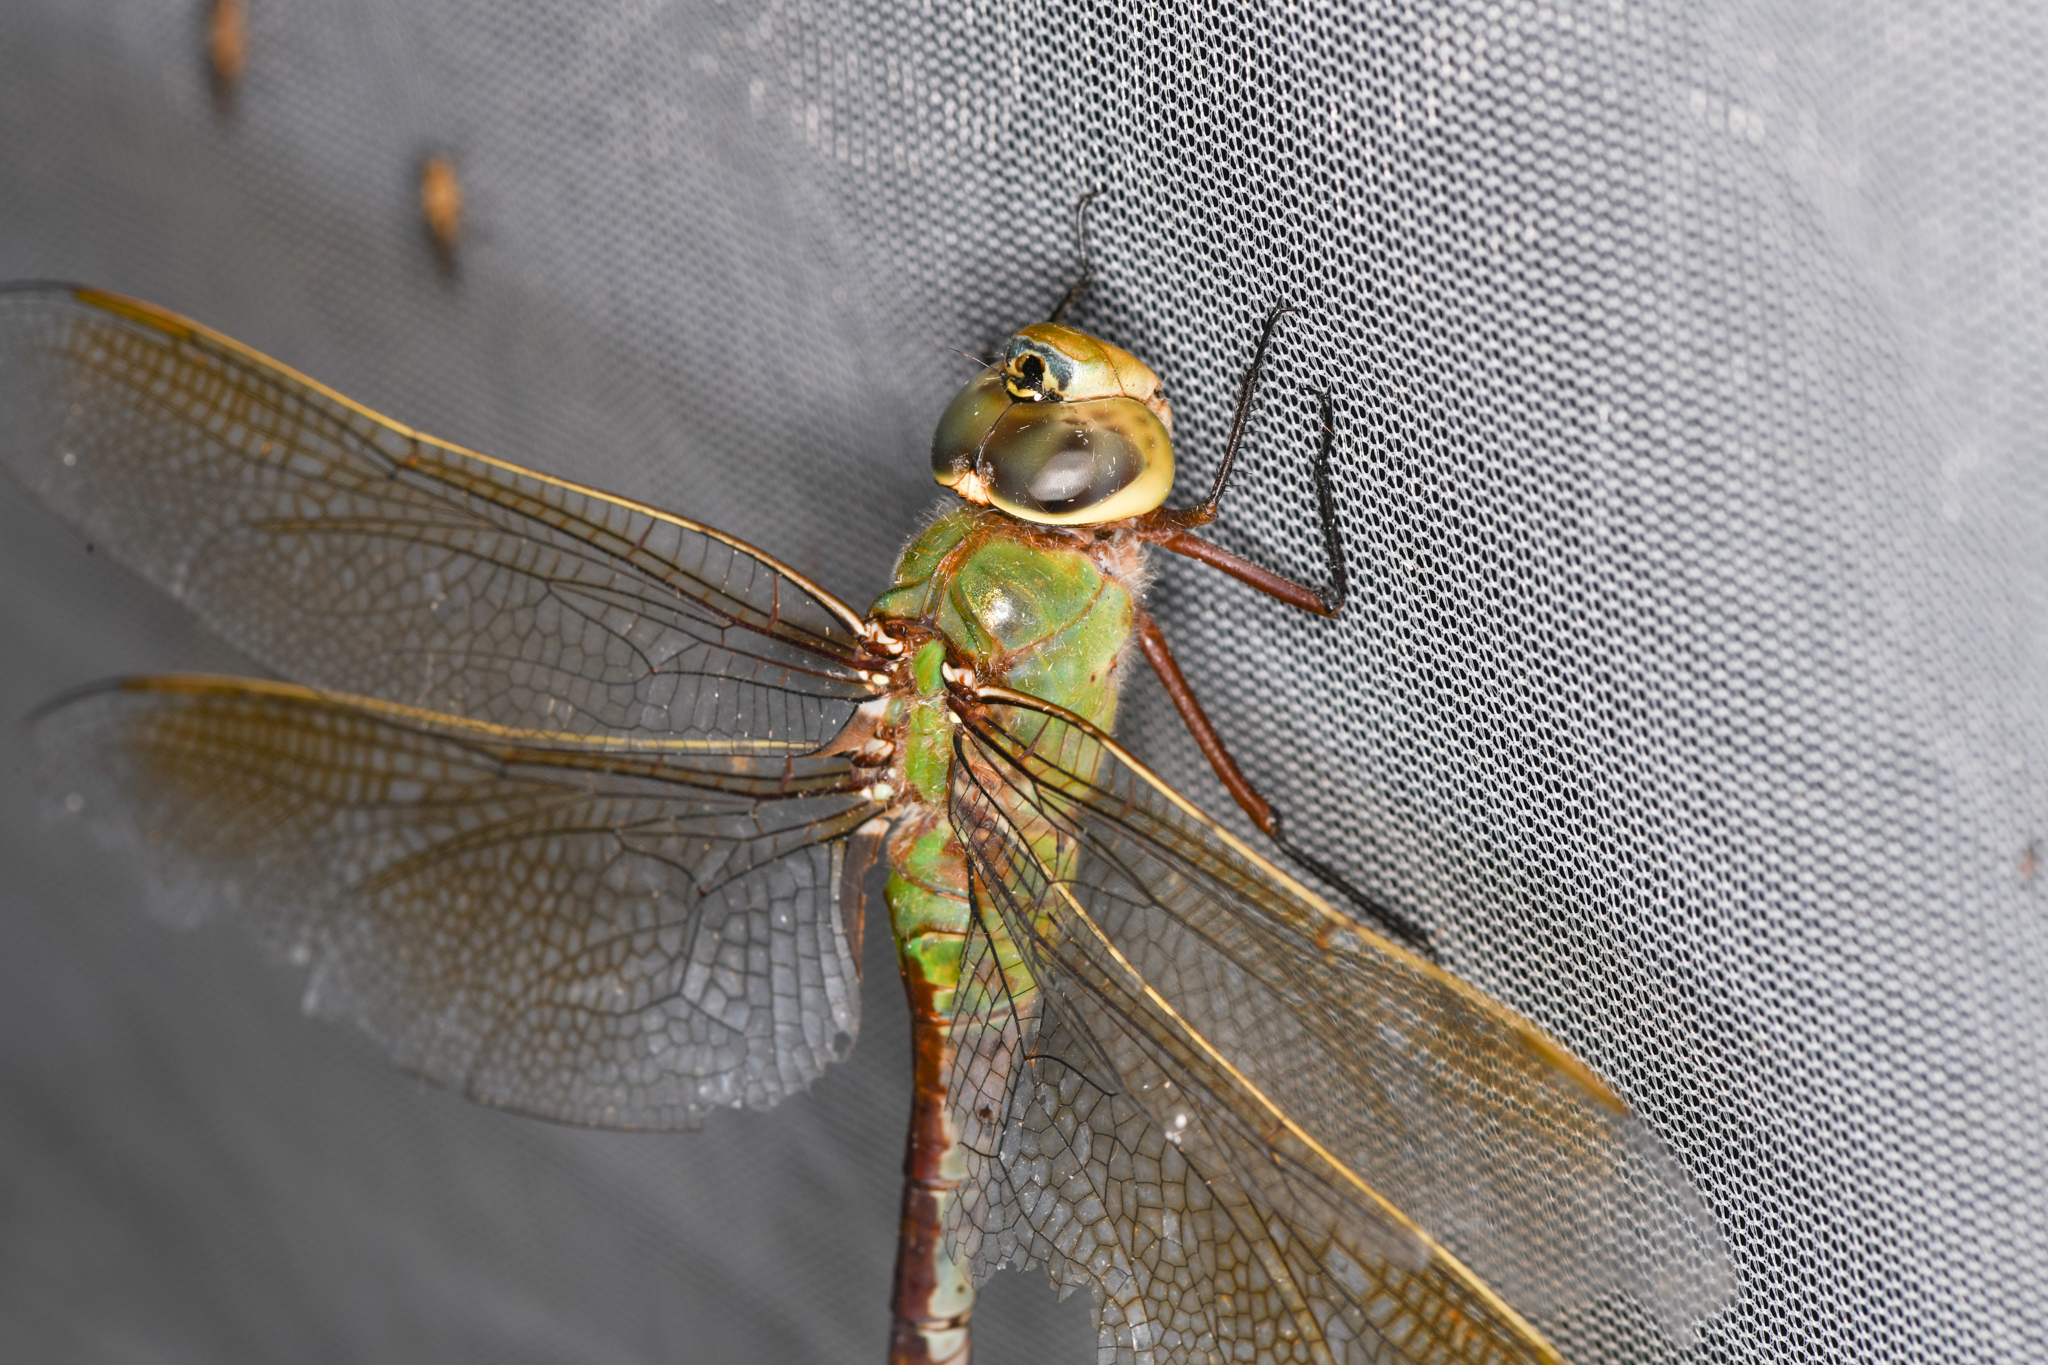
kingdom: Animalia
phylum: Arthropoda
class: Insecta
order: Odonata
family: Aeshnidae
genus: Anax
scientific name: Anax junius
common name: Common green darner
